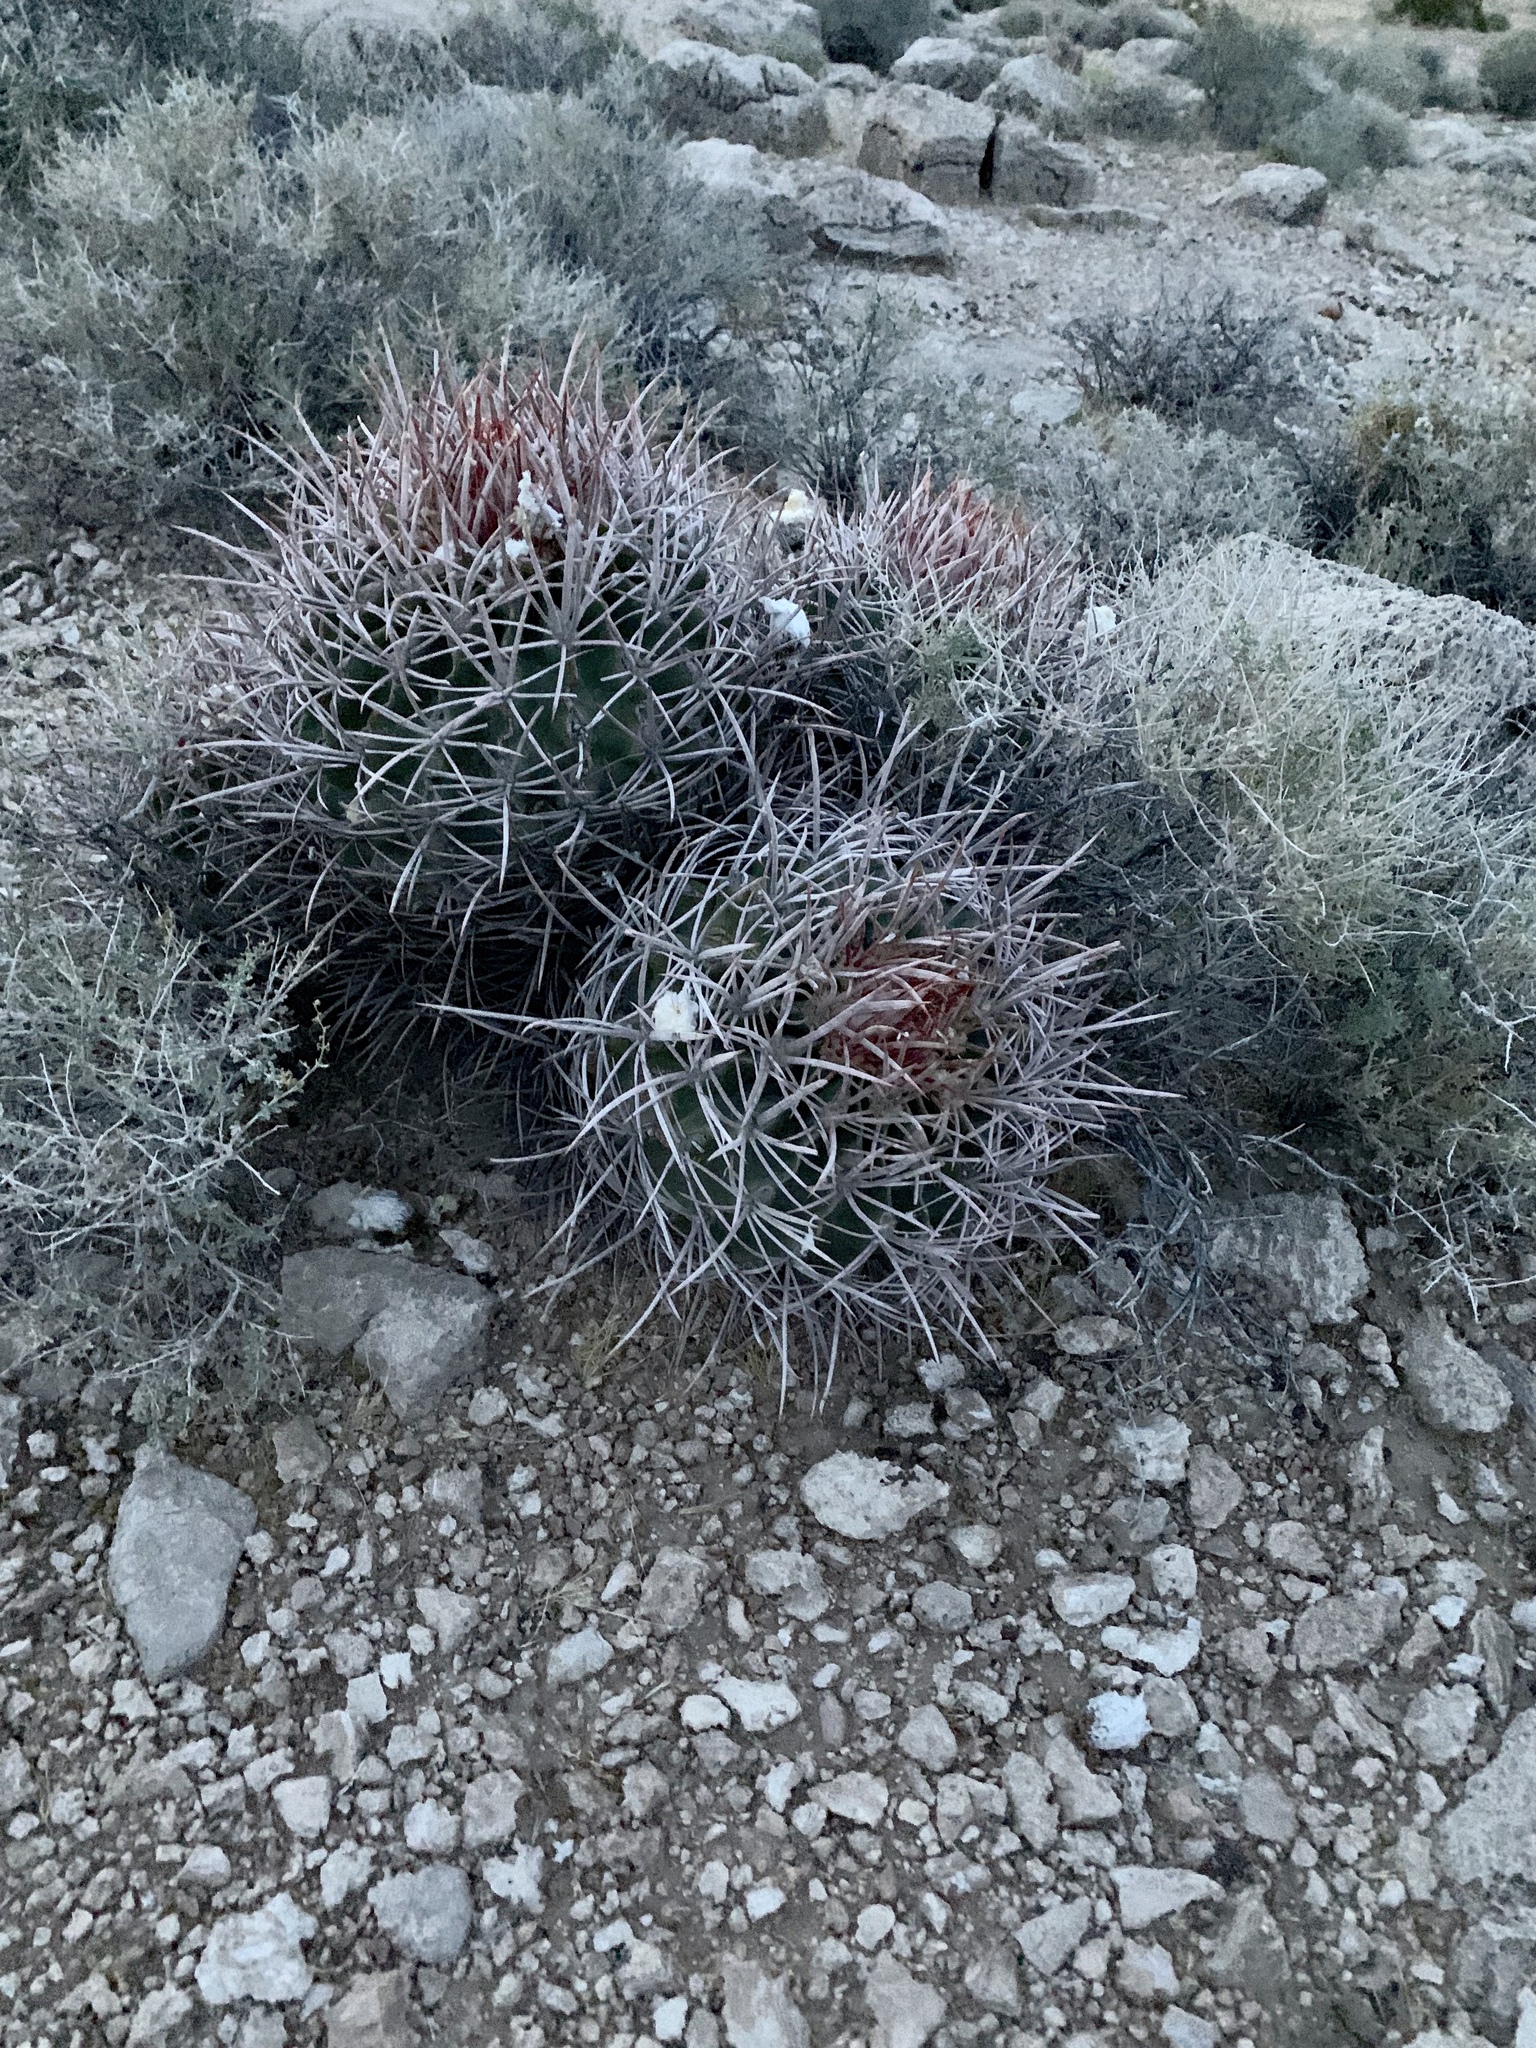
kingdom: Plantae
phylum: Tracheophyta
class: Magnoliopsida
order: Caryophyllales
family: Cactaceae
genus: Echinocactus
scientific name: Echinocactus polycephalus
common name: Cottontop cactus
